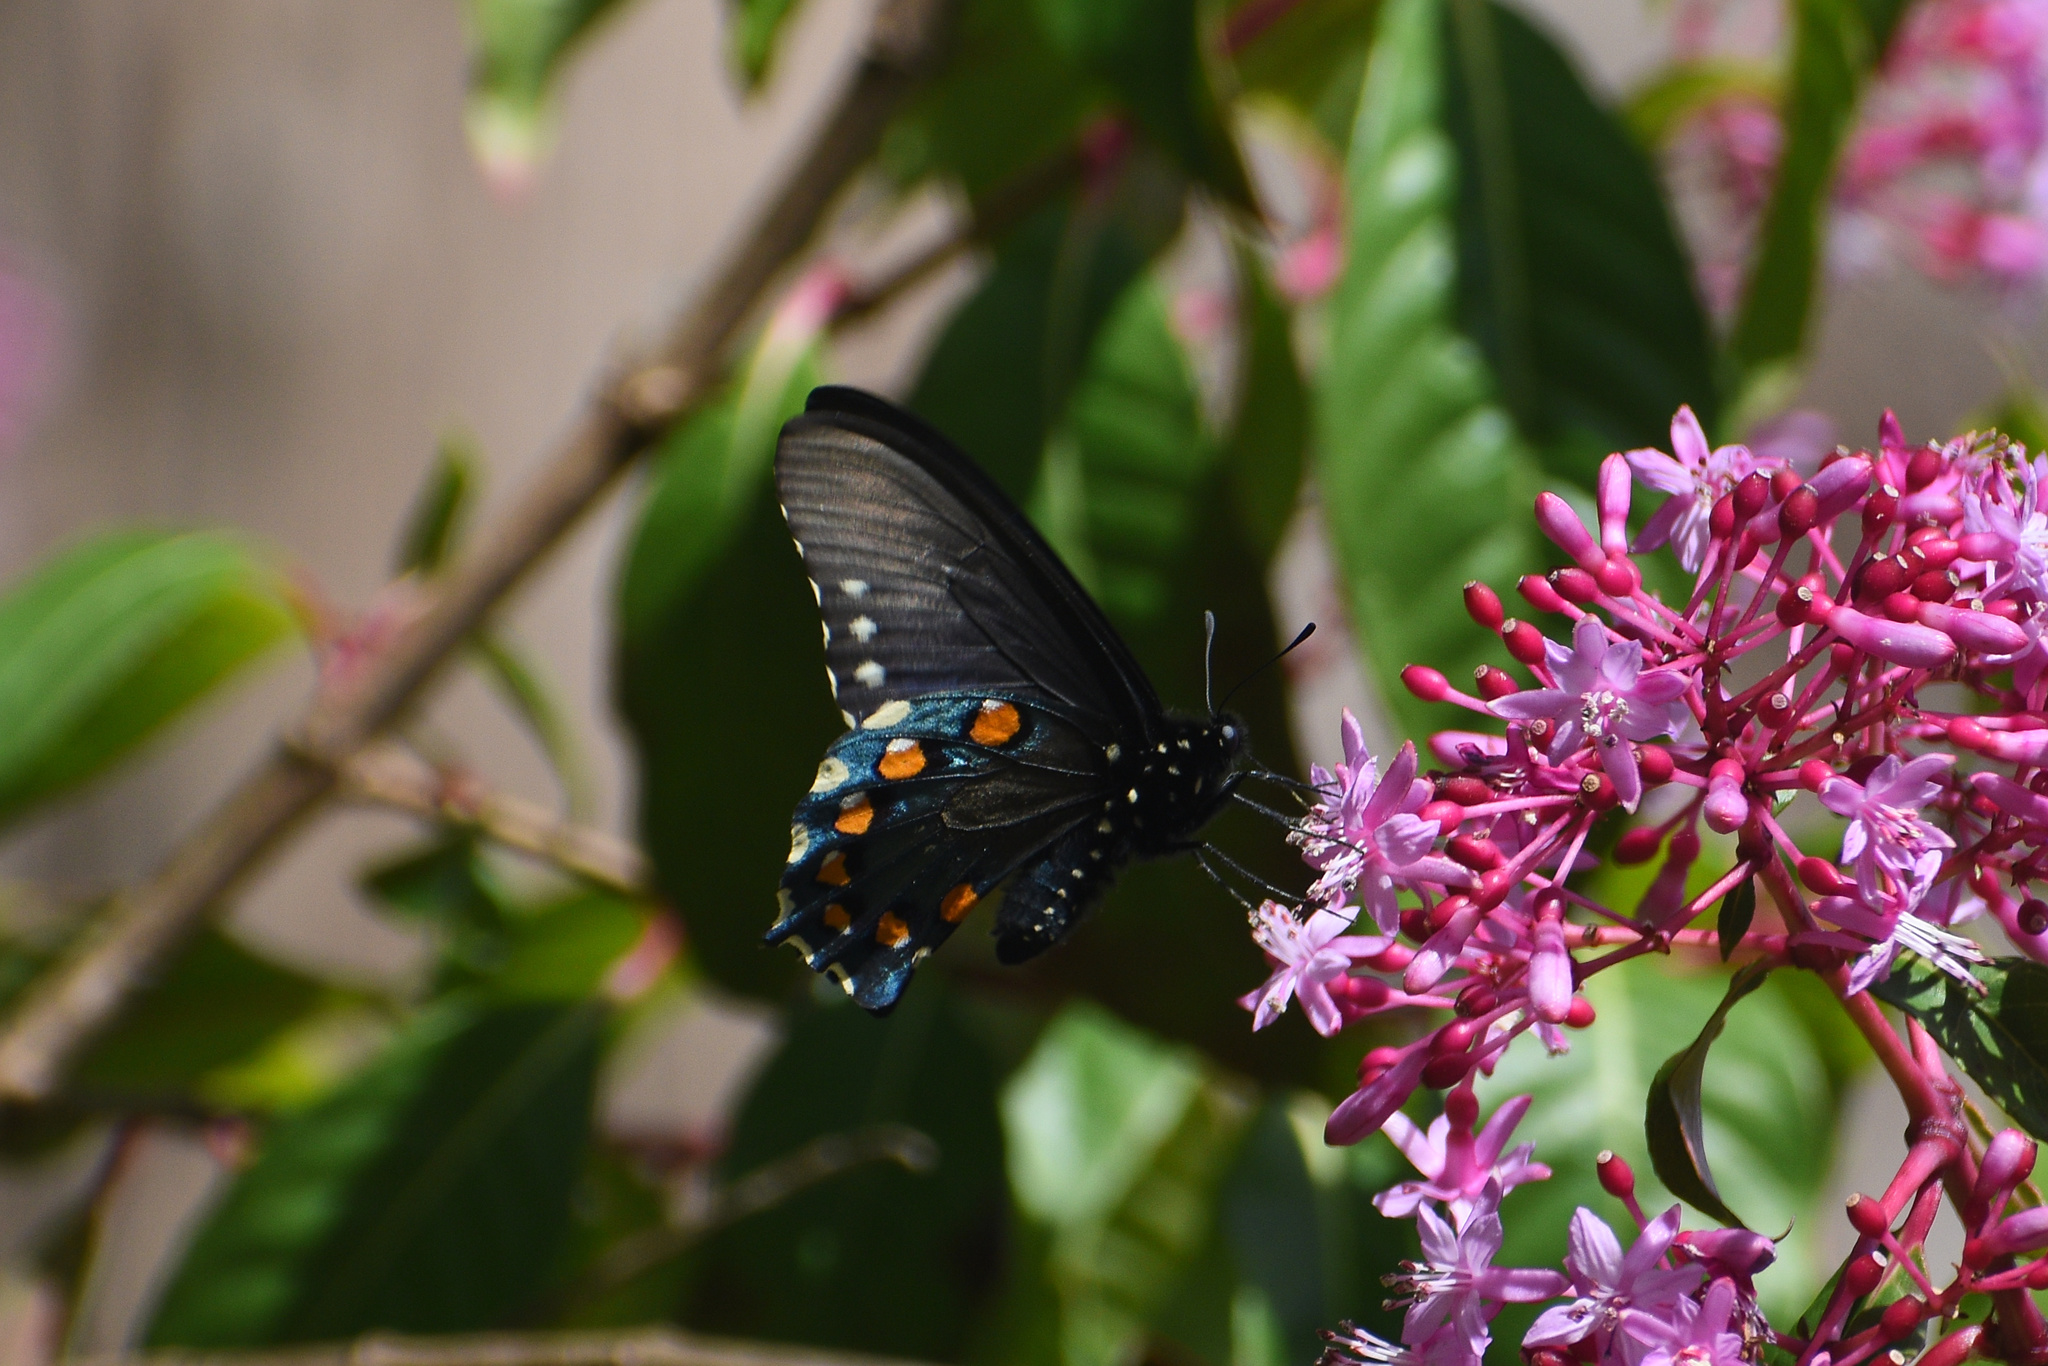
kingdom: Animalia
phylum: Arthropoda
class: Insecta
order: Lepidoptera
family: Papilionidae
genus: Battus
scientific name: Battus philenor
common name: Pipevine swallowtail
